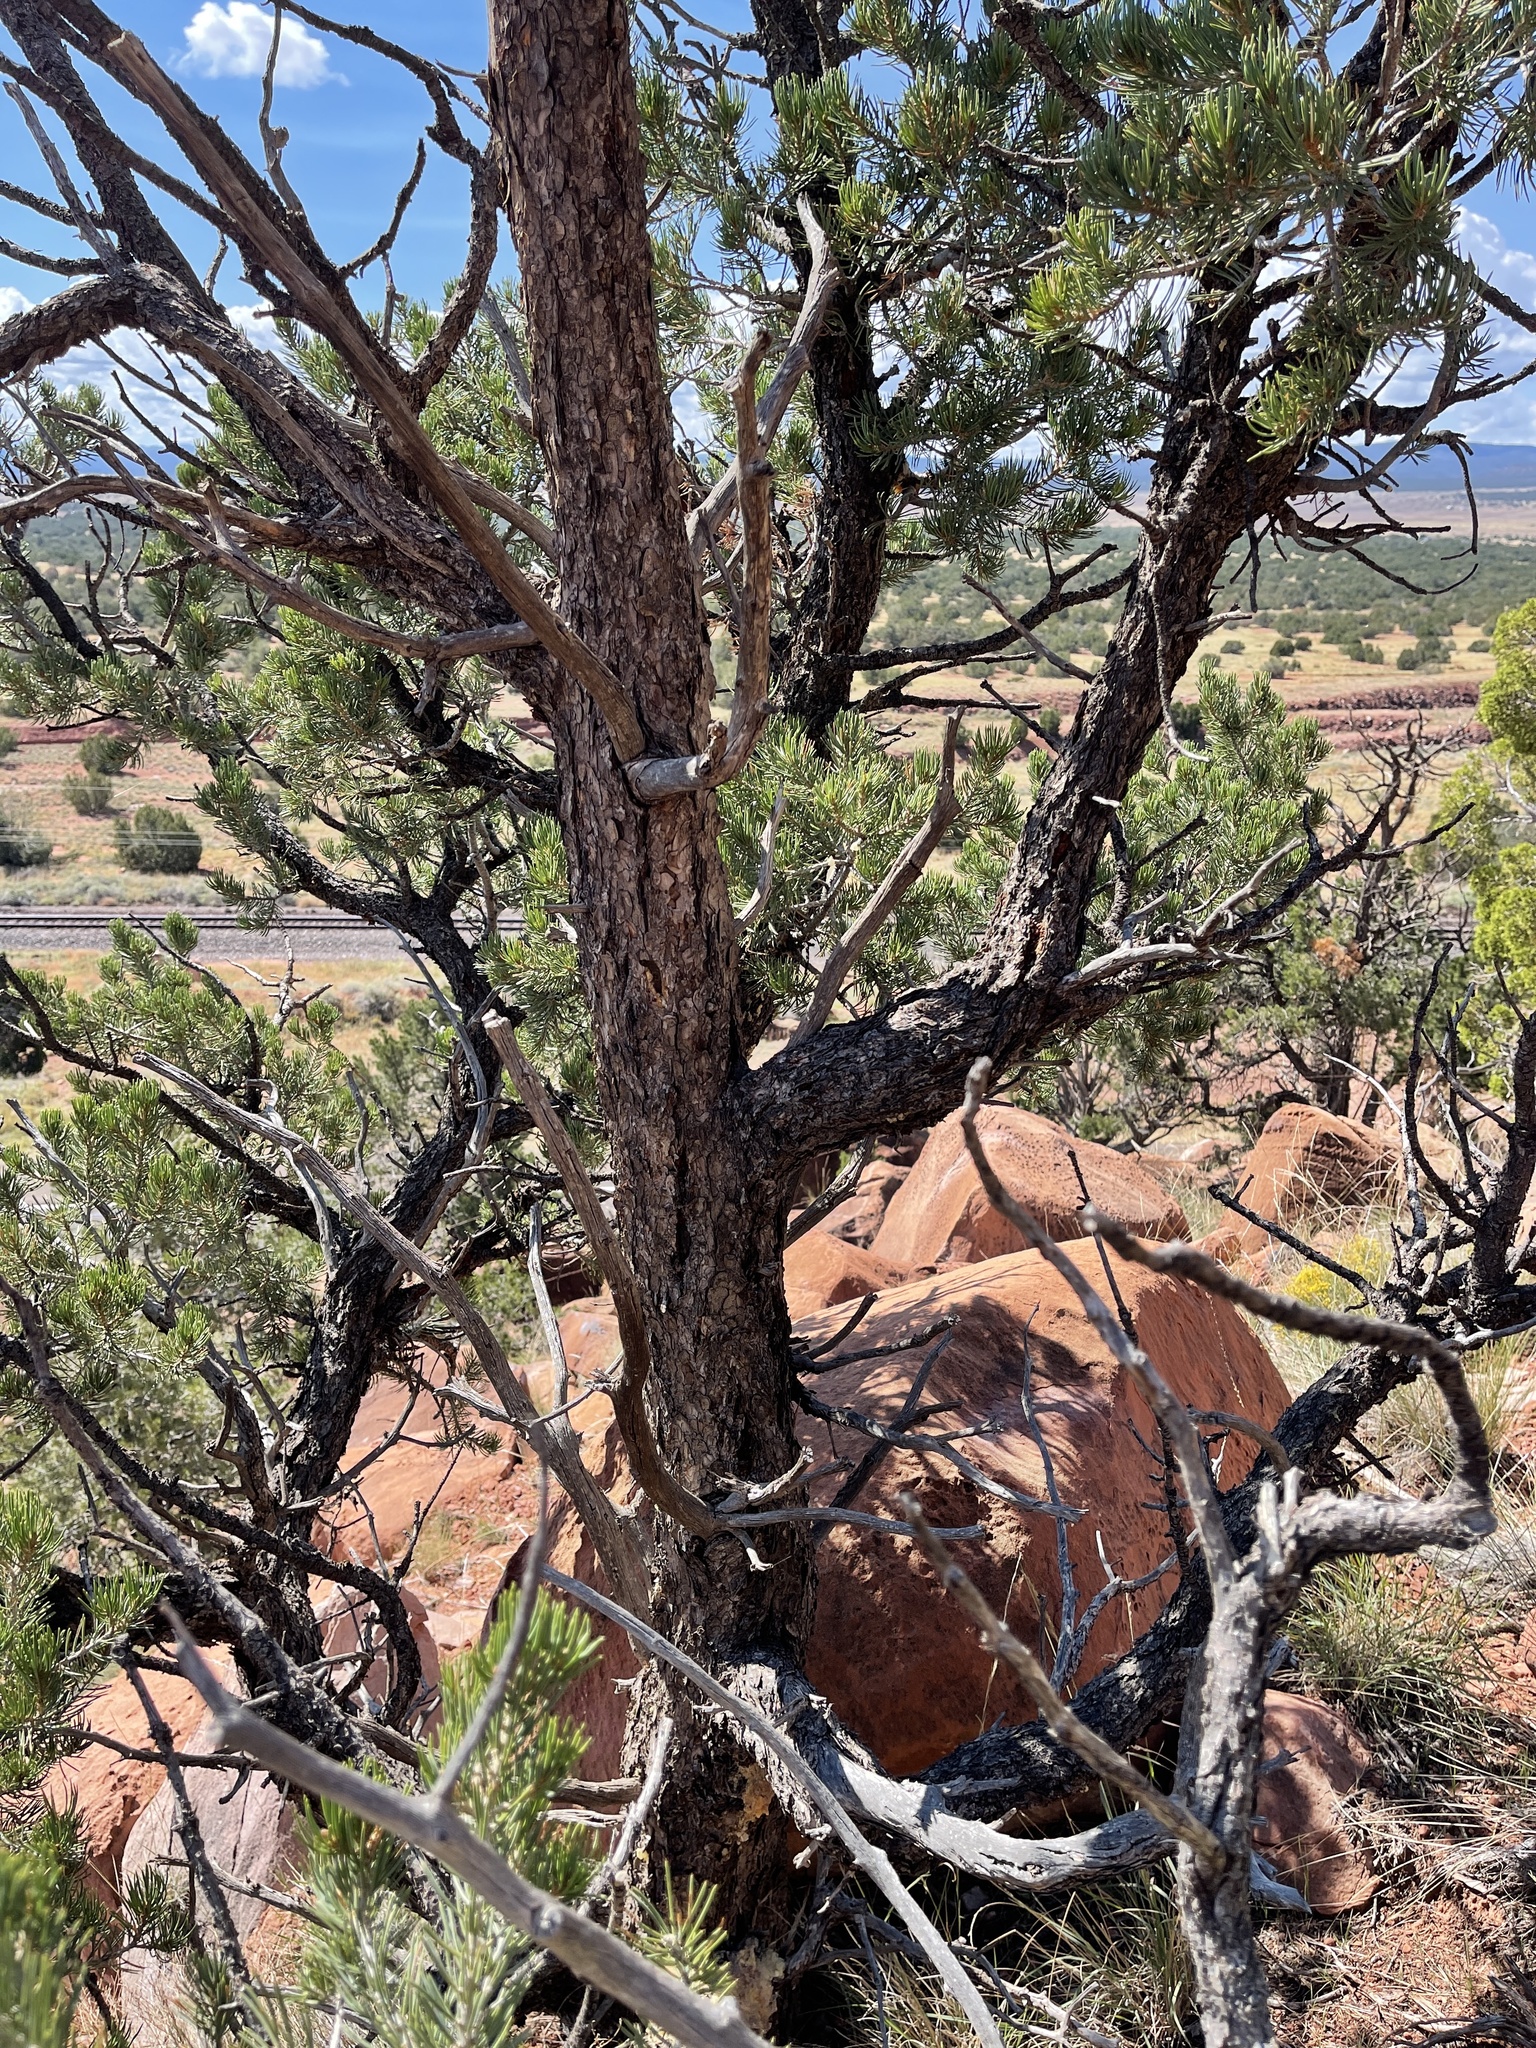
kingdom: Plantae
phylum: Tracheophyta
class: Pinopsida
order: Pinales
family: Pinaceae
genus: Pinus
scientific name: Pinus edulis
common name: Colorado pinyon
